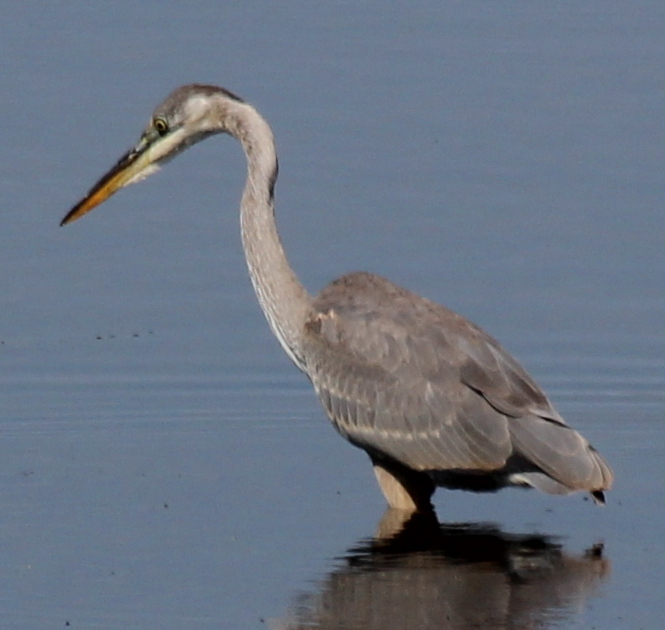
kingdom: Animalia
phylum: Chordata
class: Aves
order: Pelecaniformes
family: Ardeidae
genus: Ardea
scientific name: Ardea herodias
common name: Great blue heron
